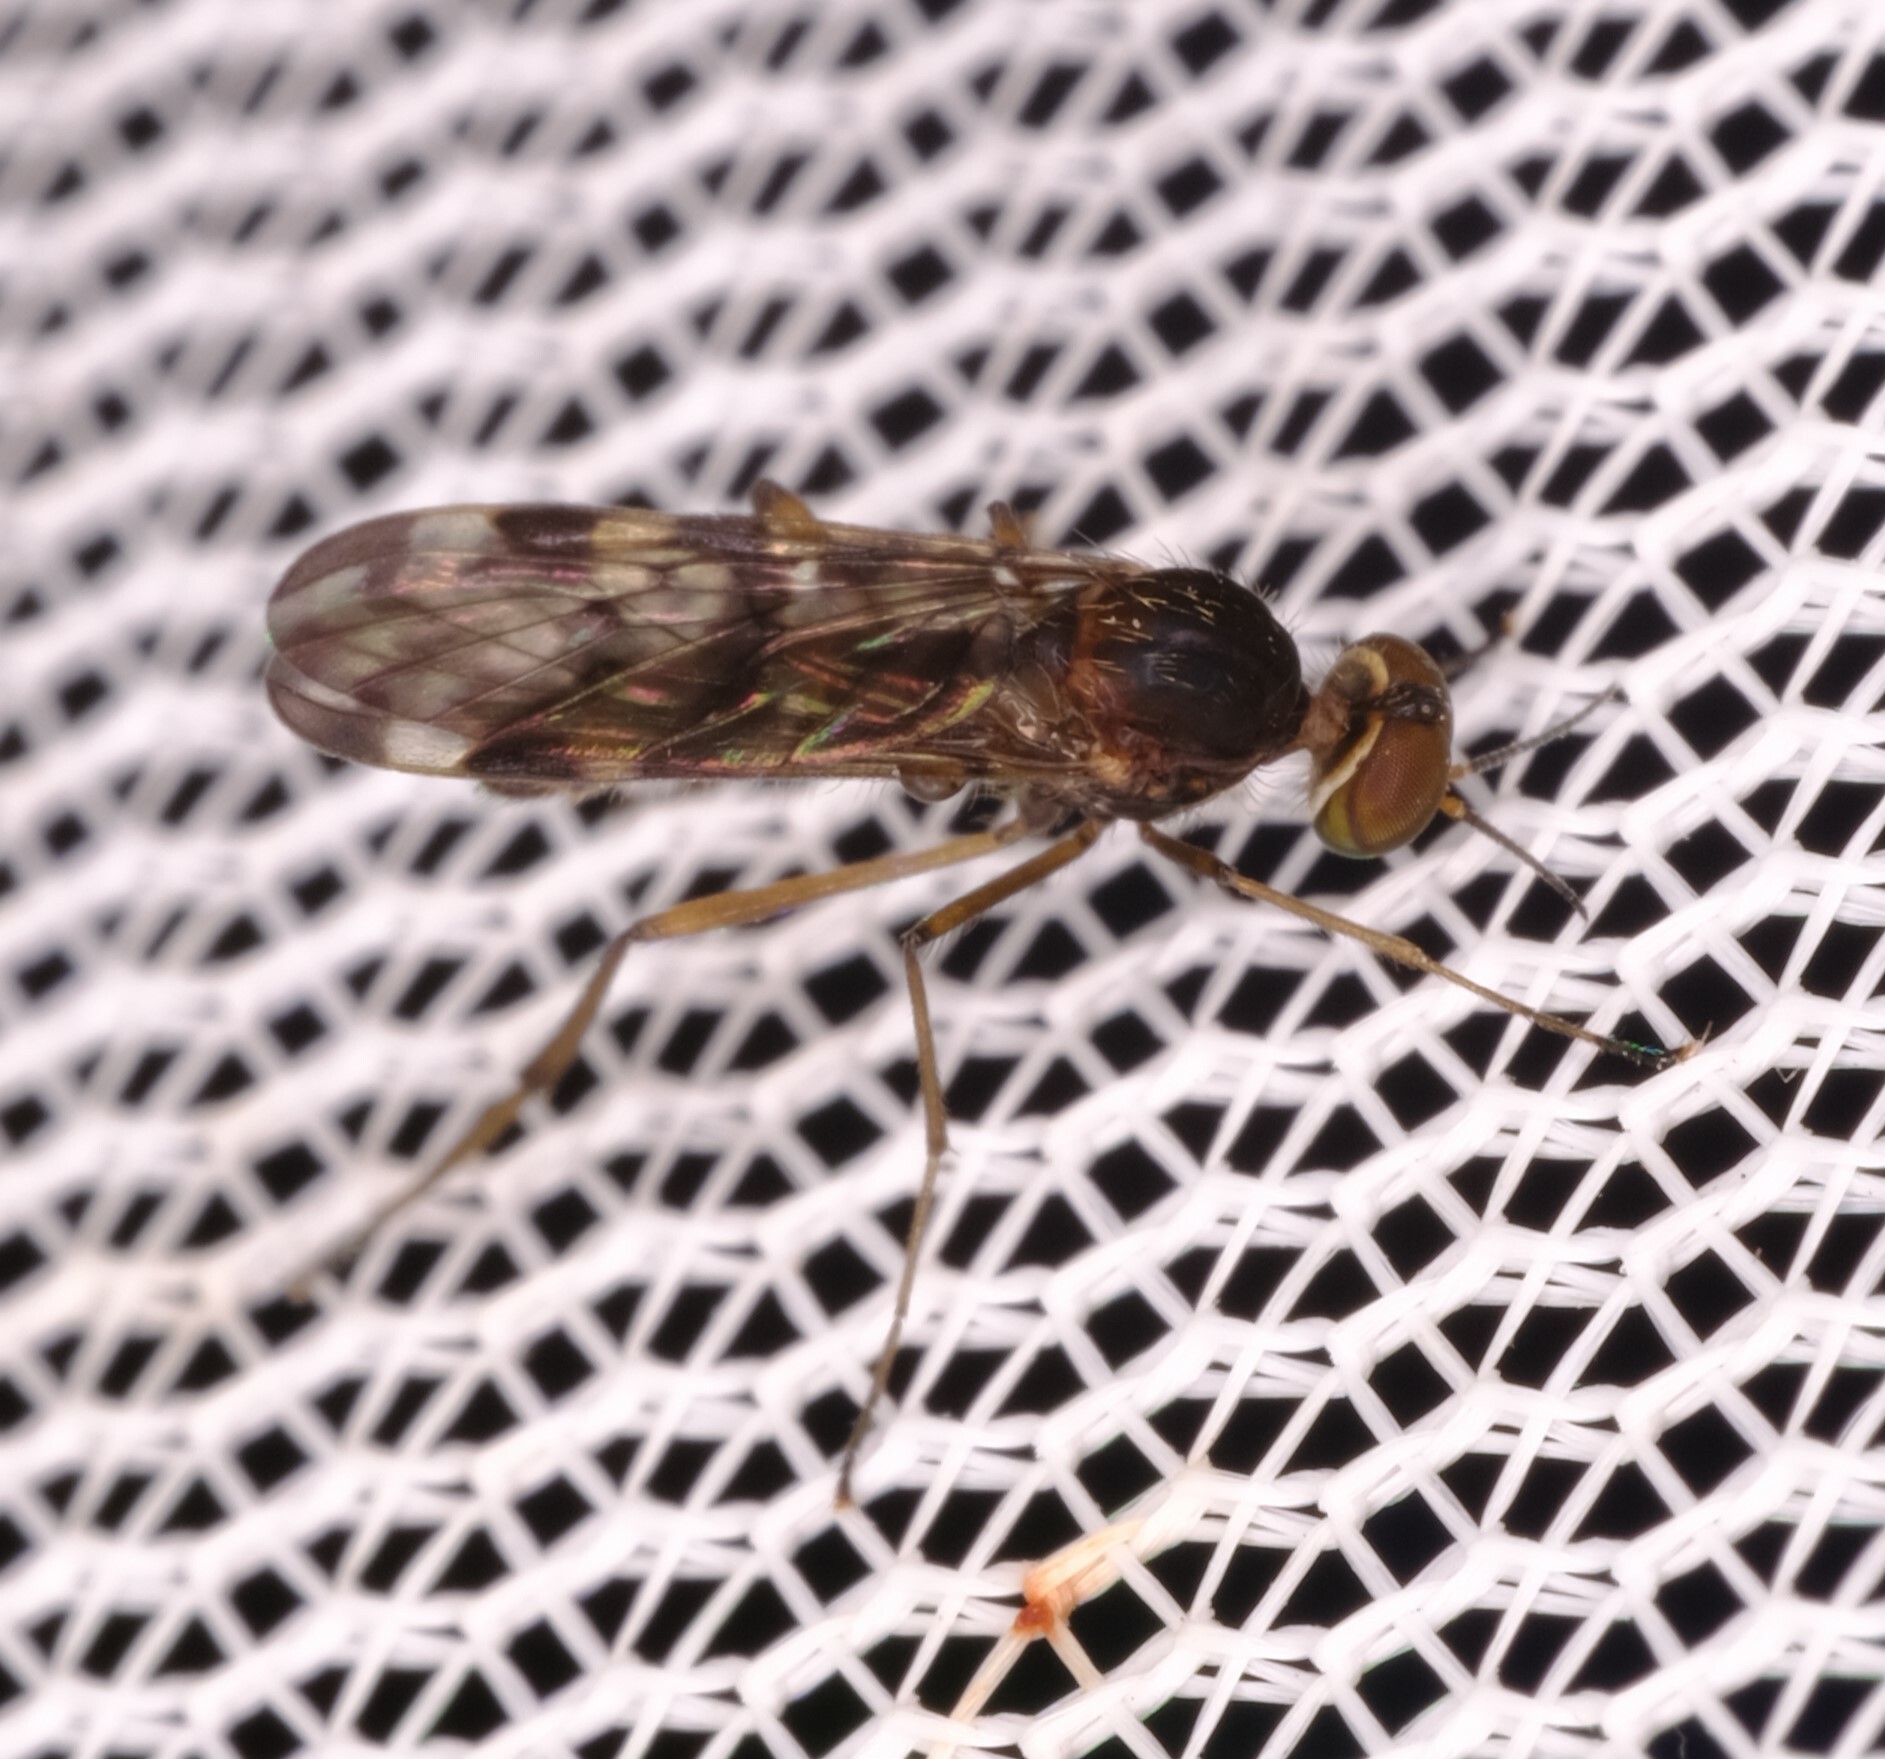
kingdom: Animalia
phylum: Arthropoda
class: Insecta
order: Diptera
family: Anisopodidae
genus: Sylvicola
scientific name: Sylvicola dubius
